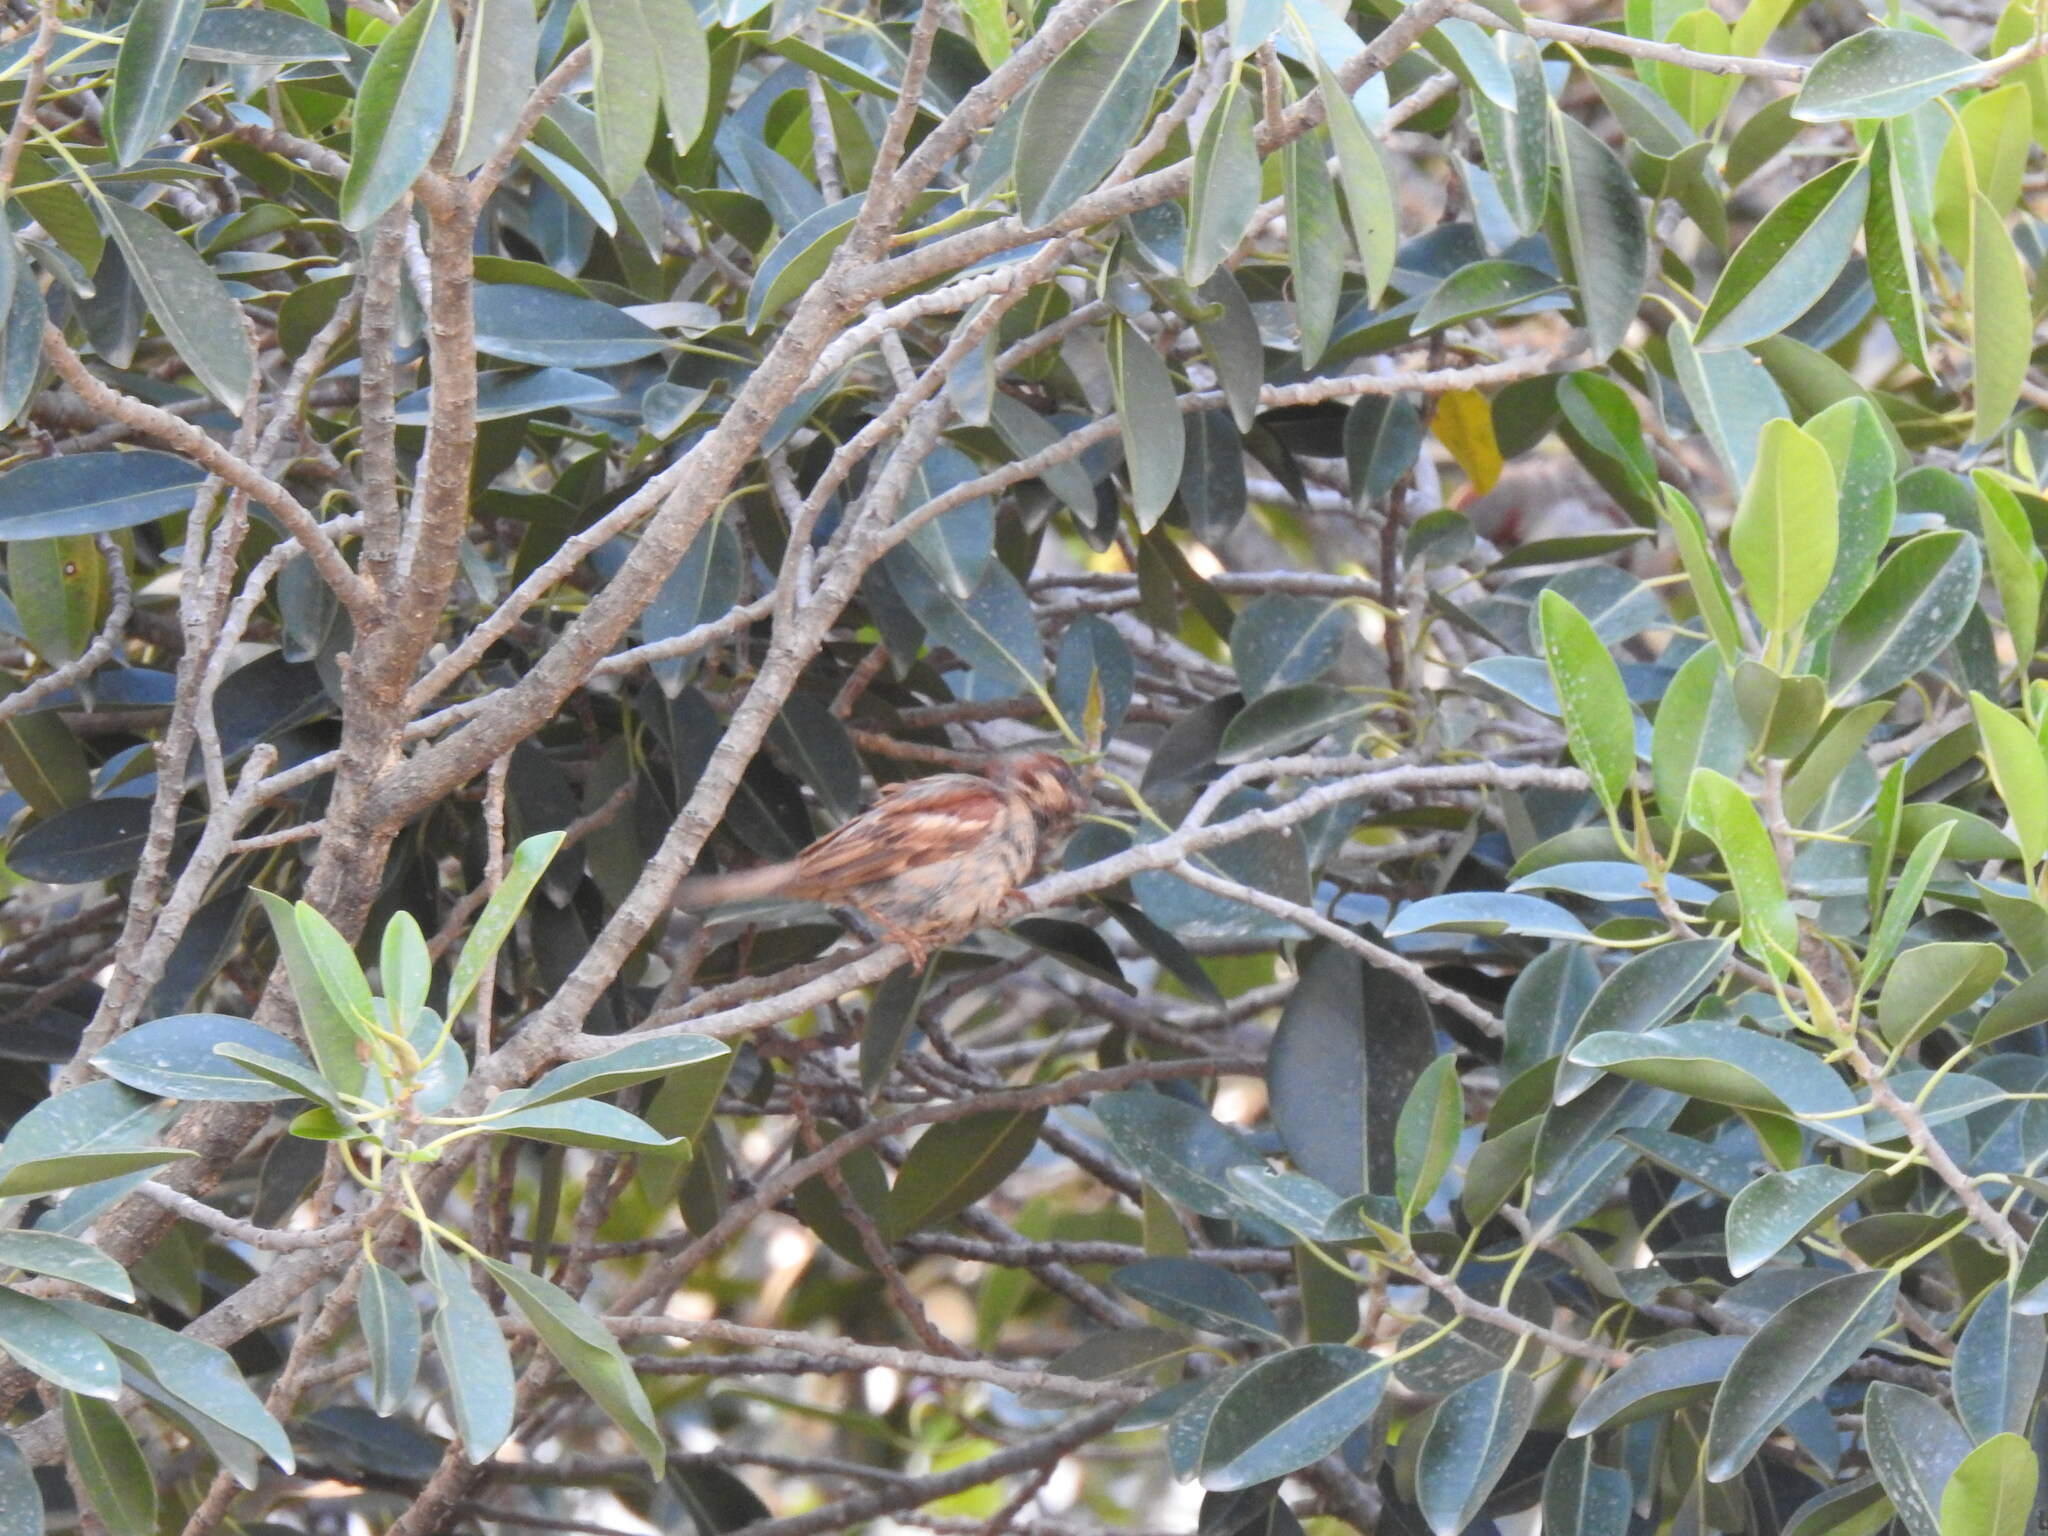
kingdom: Animalia
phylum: Chordata
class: Aves
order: Passeriformes
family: Passeridae
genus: Passer
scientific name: Passer domesticus
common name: House sparrow
